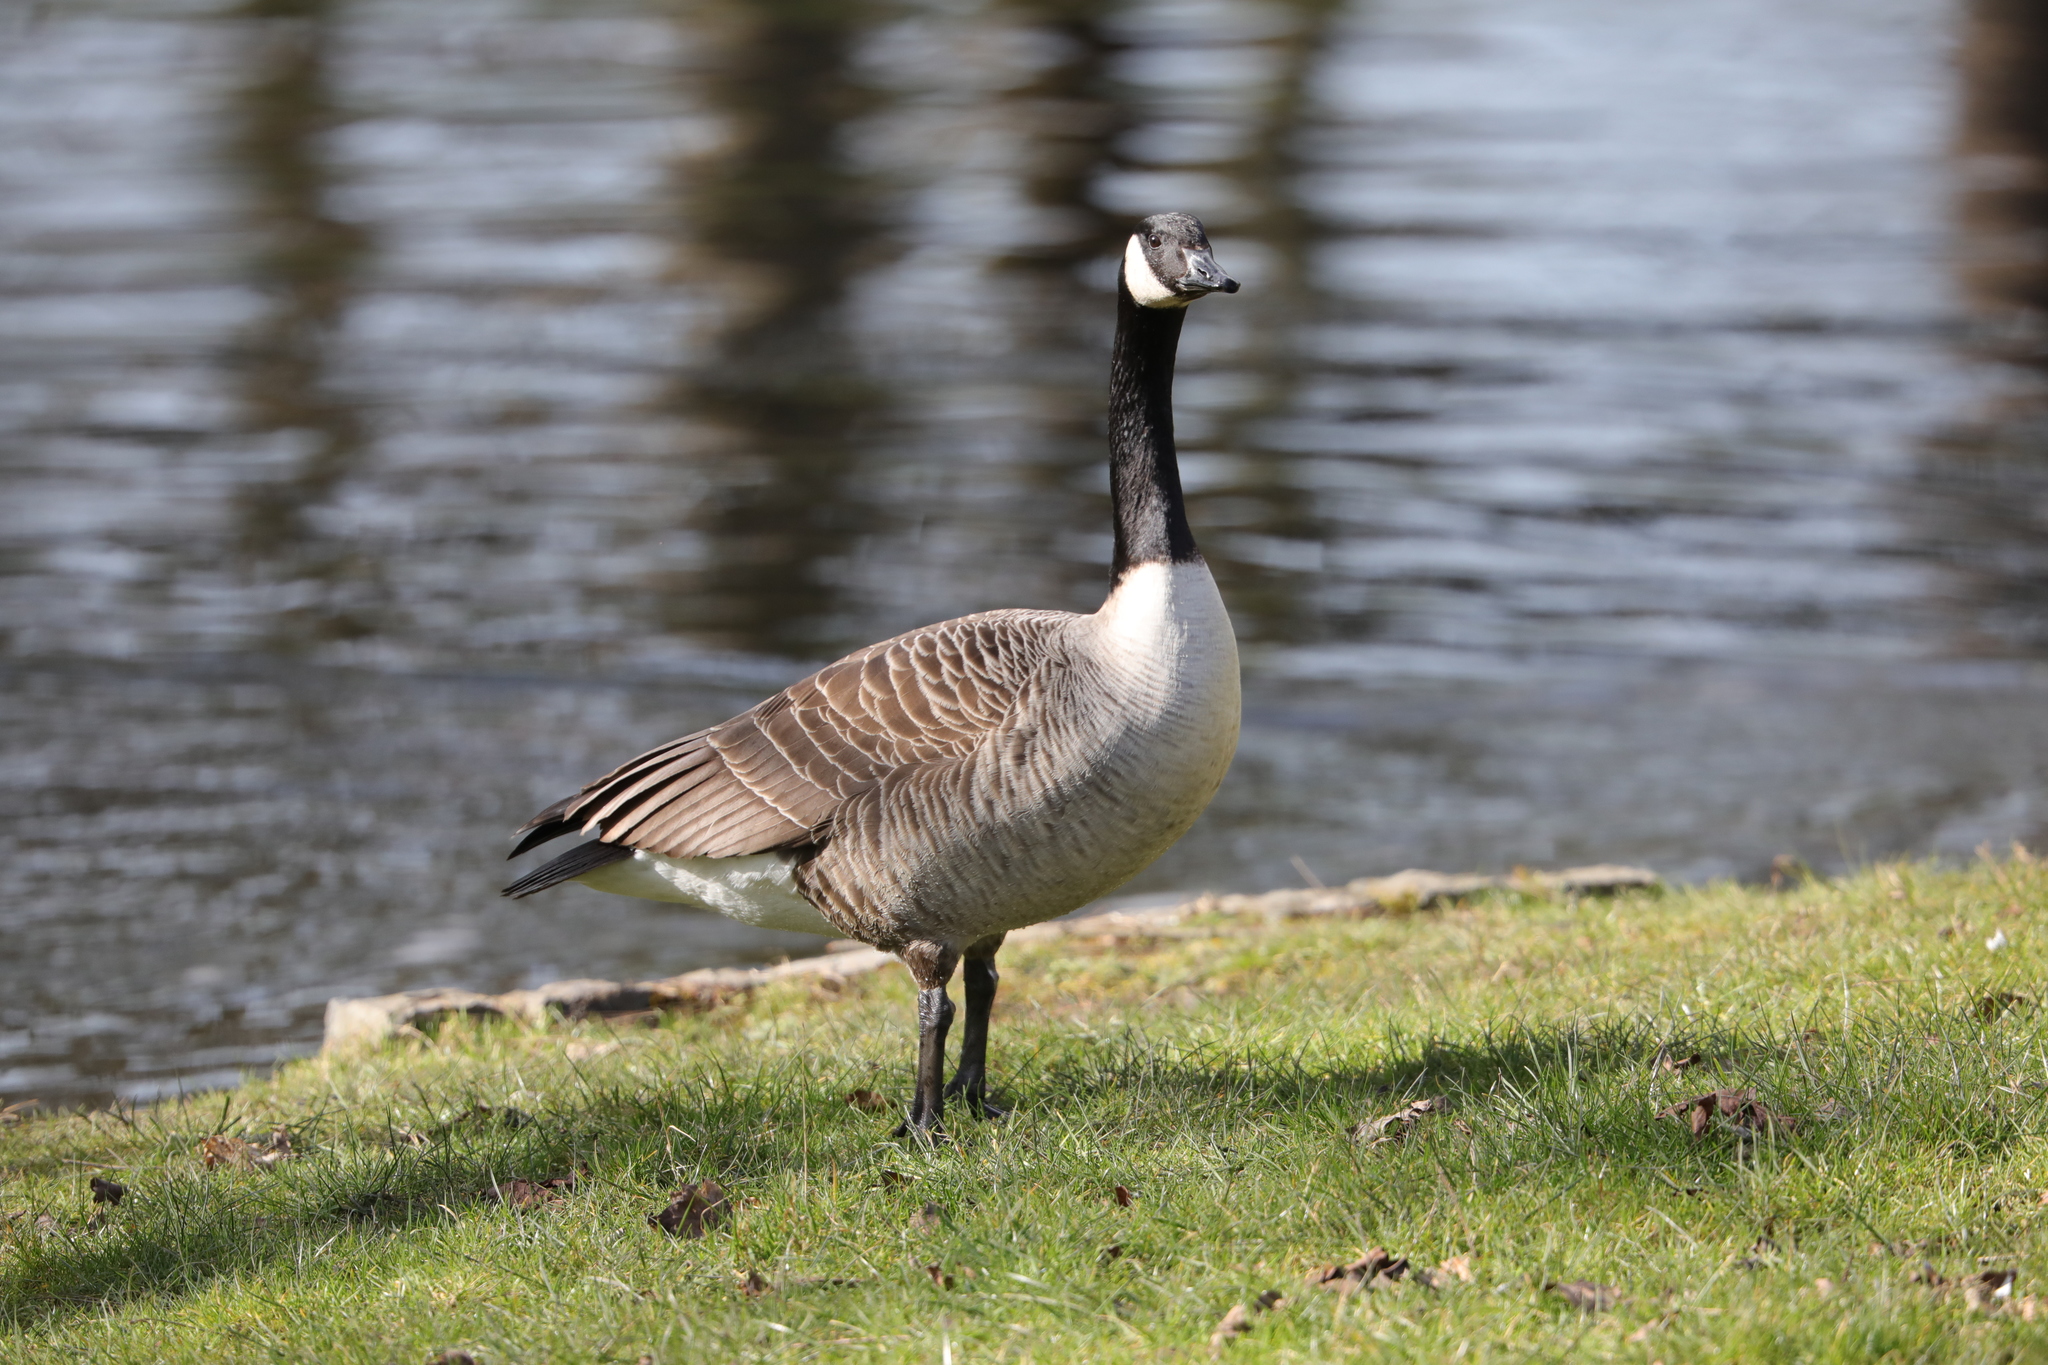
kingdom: Animalia
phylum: Chordata
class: Aves
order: Anseriformes
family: Anatidae
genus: Branta
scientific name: Branta canadensis
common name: Canada goose
